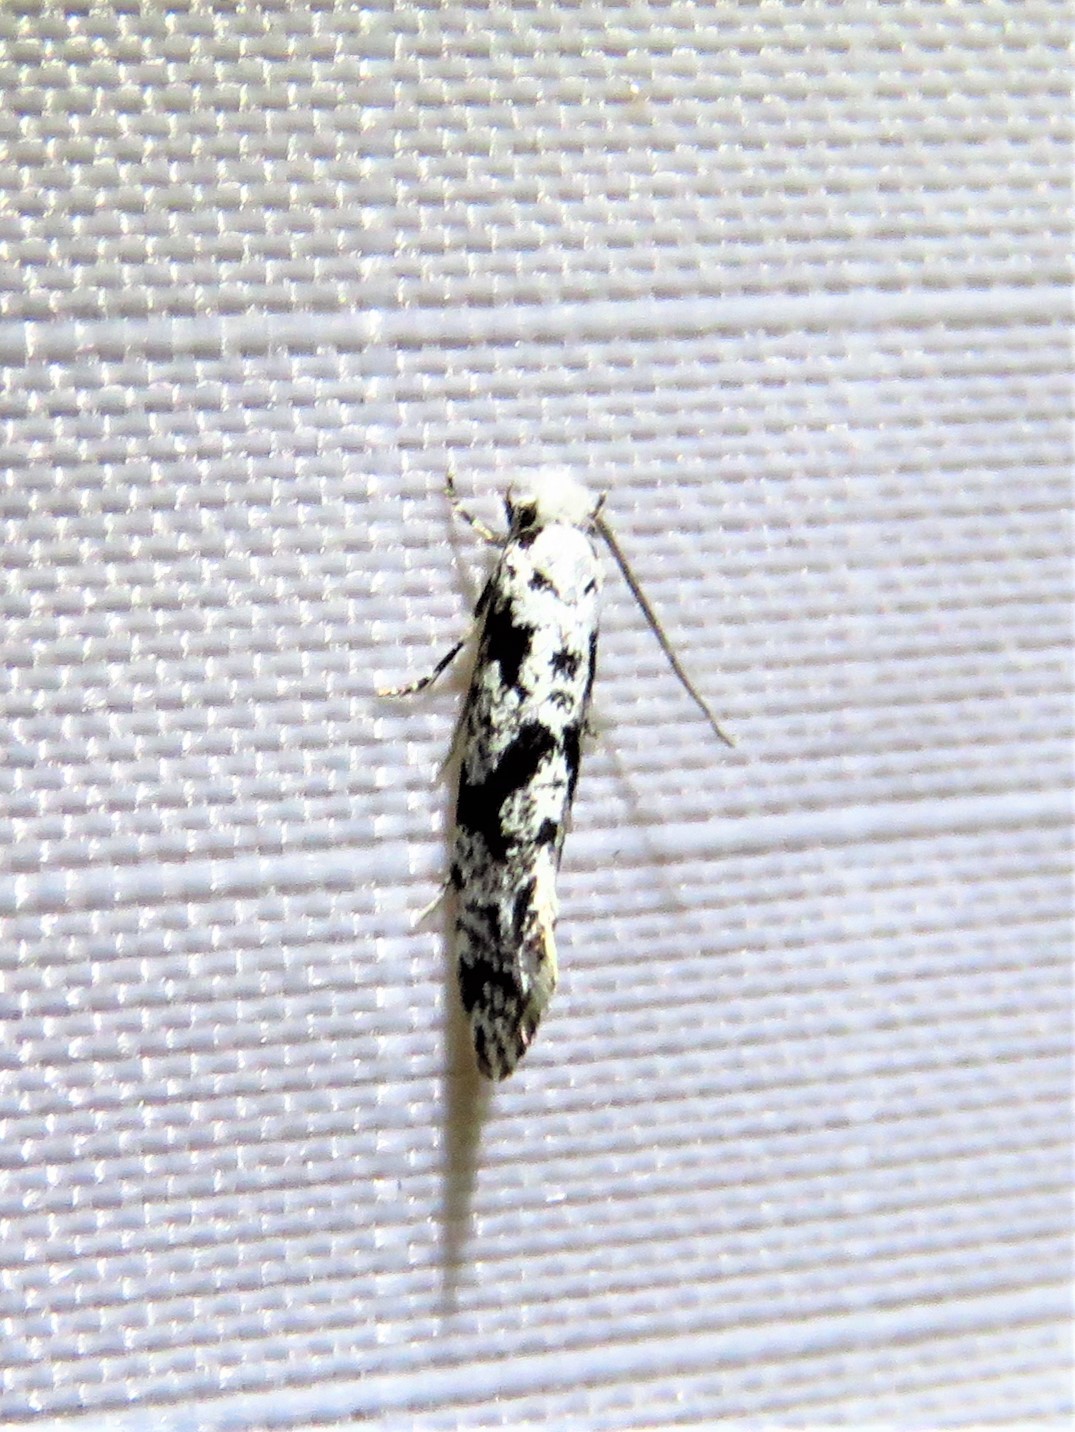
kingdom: Animalia
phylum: Arthropoda
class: Insecta
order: Lepidoptera
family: Tineidae
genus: Nemapogon
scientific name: Nemapogon defectella
